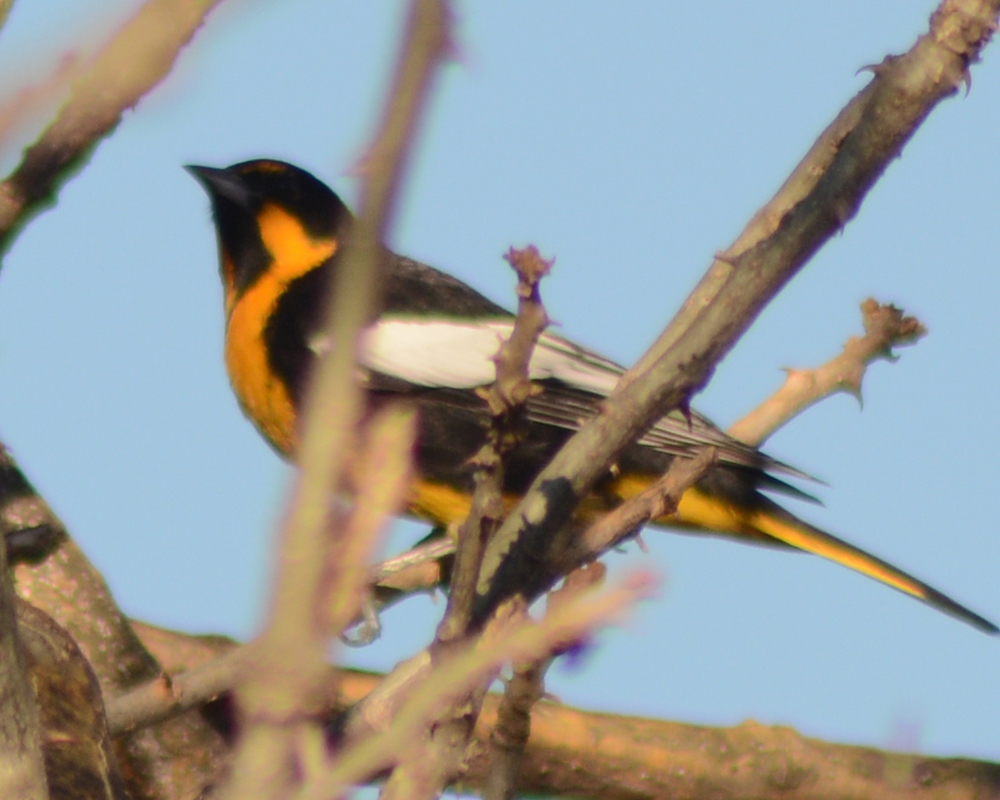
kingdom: Animalia
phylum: Chordata
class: Aves
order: Passeriformes
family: Icteridae
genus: Icterus
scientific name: Icterus abeillei
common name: Black-backed oriole
